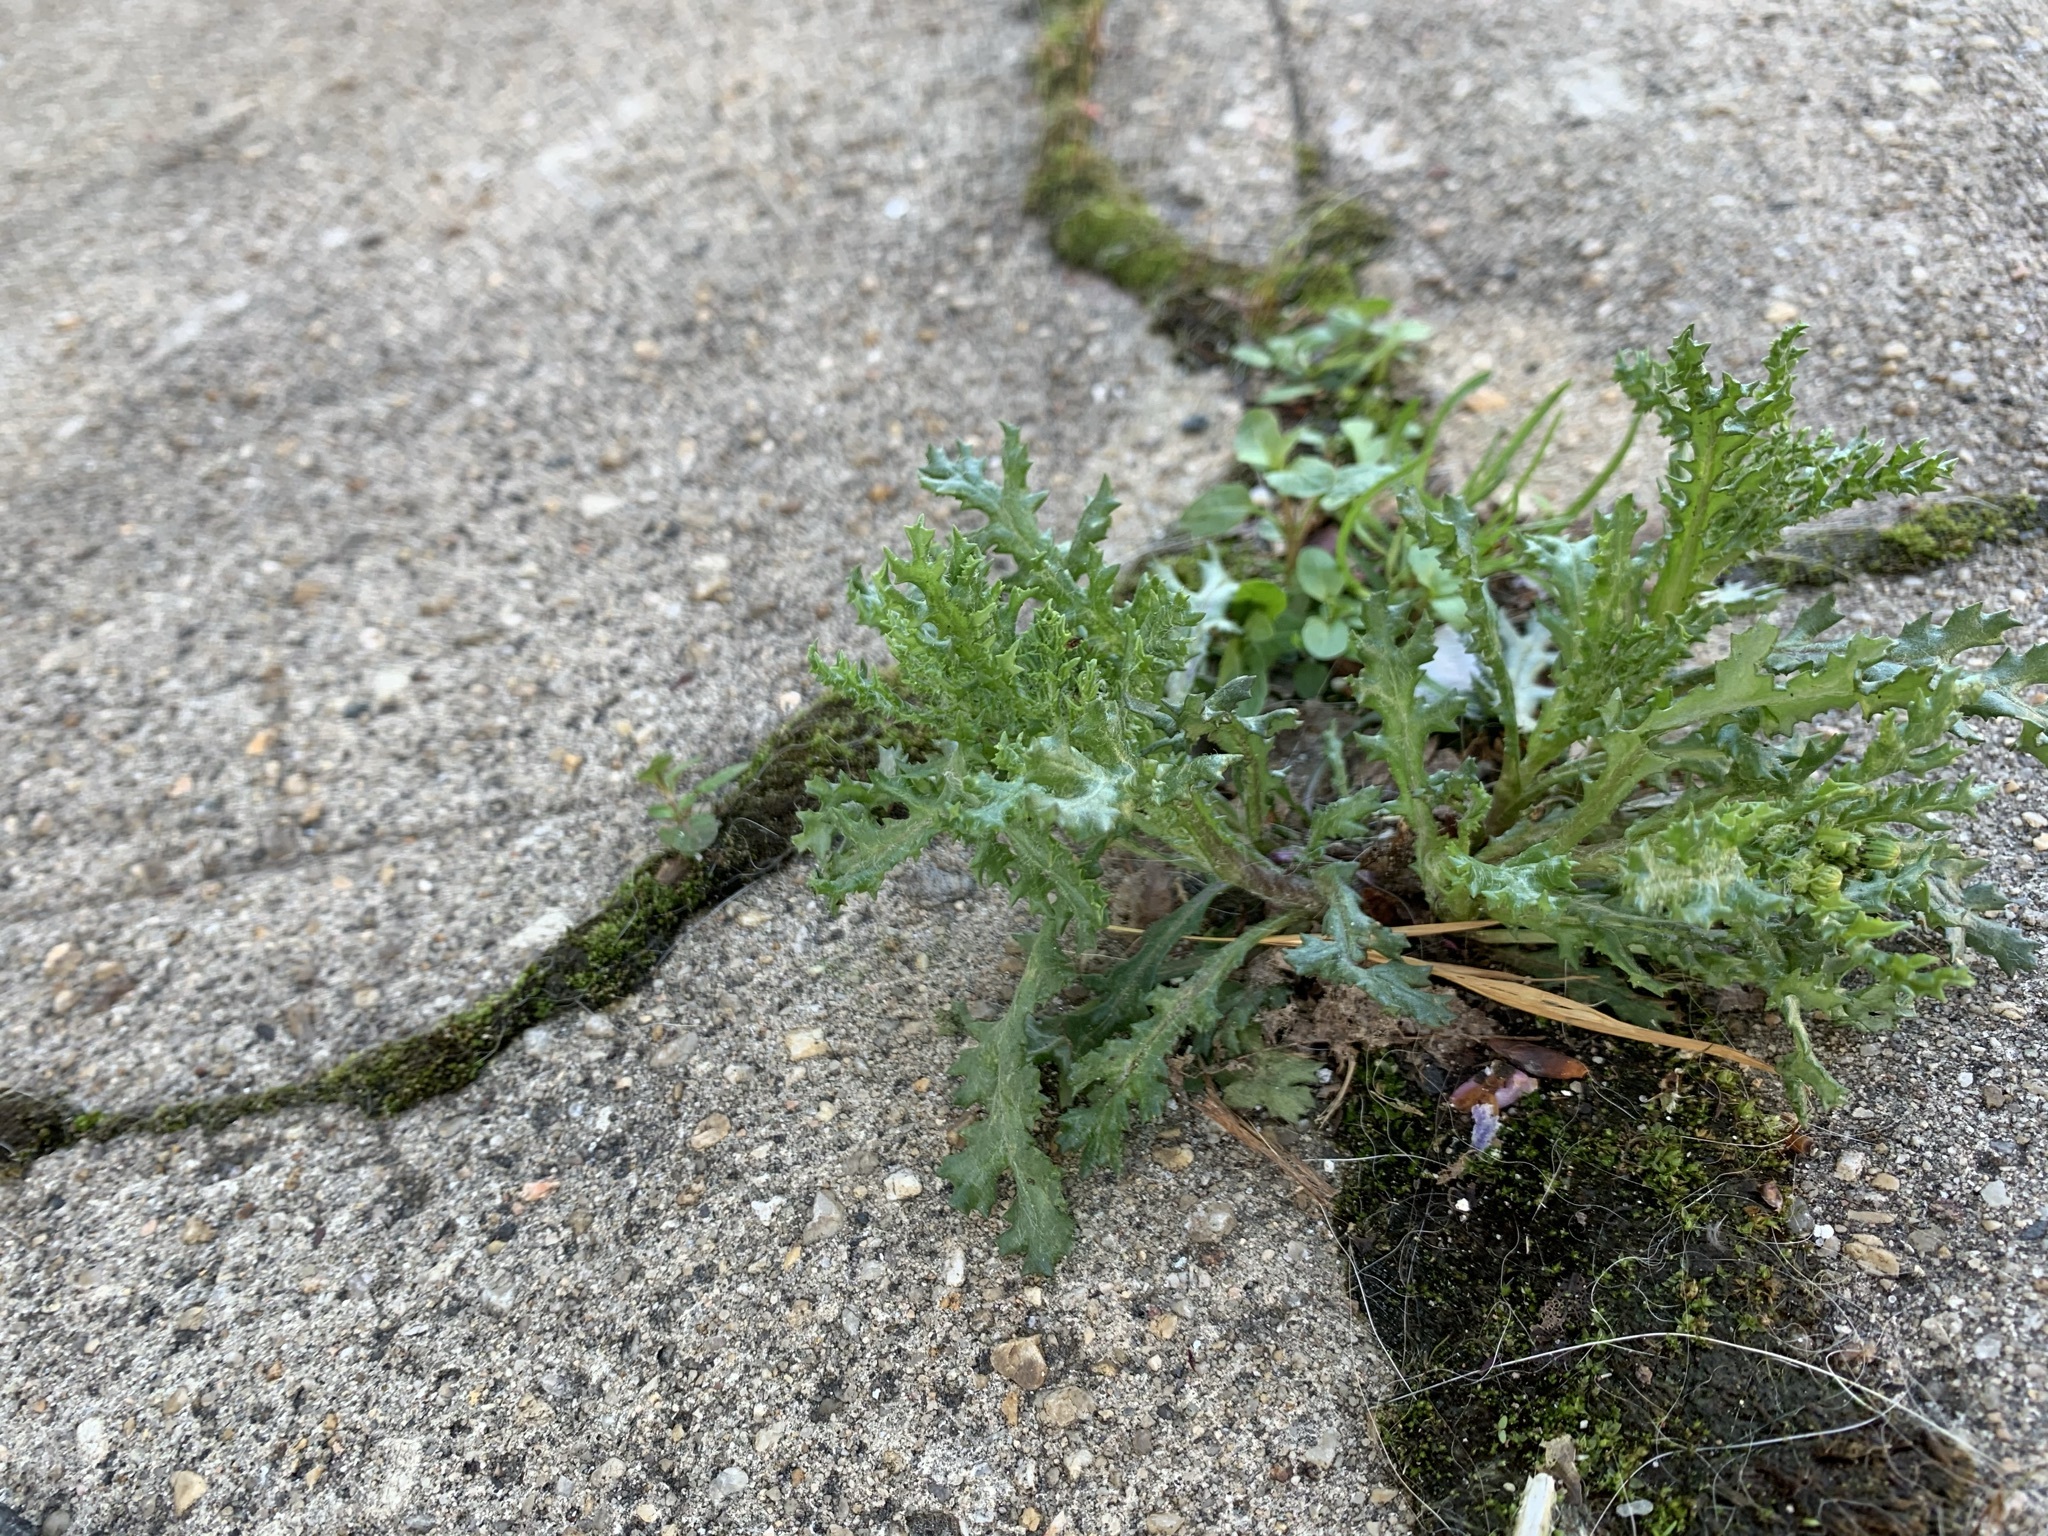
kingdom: Plantae
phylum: Tracheophyta
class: Magnoliopsida
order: Asterales
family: Asteraceae
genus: Senecio
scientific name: Senecio vulgaris
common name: Old-man-in-the-spring
